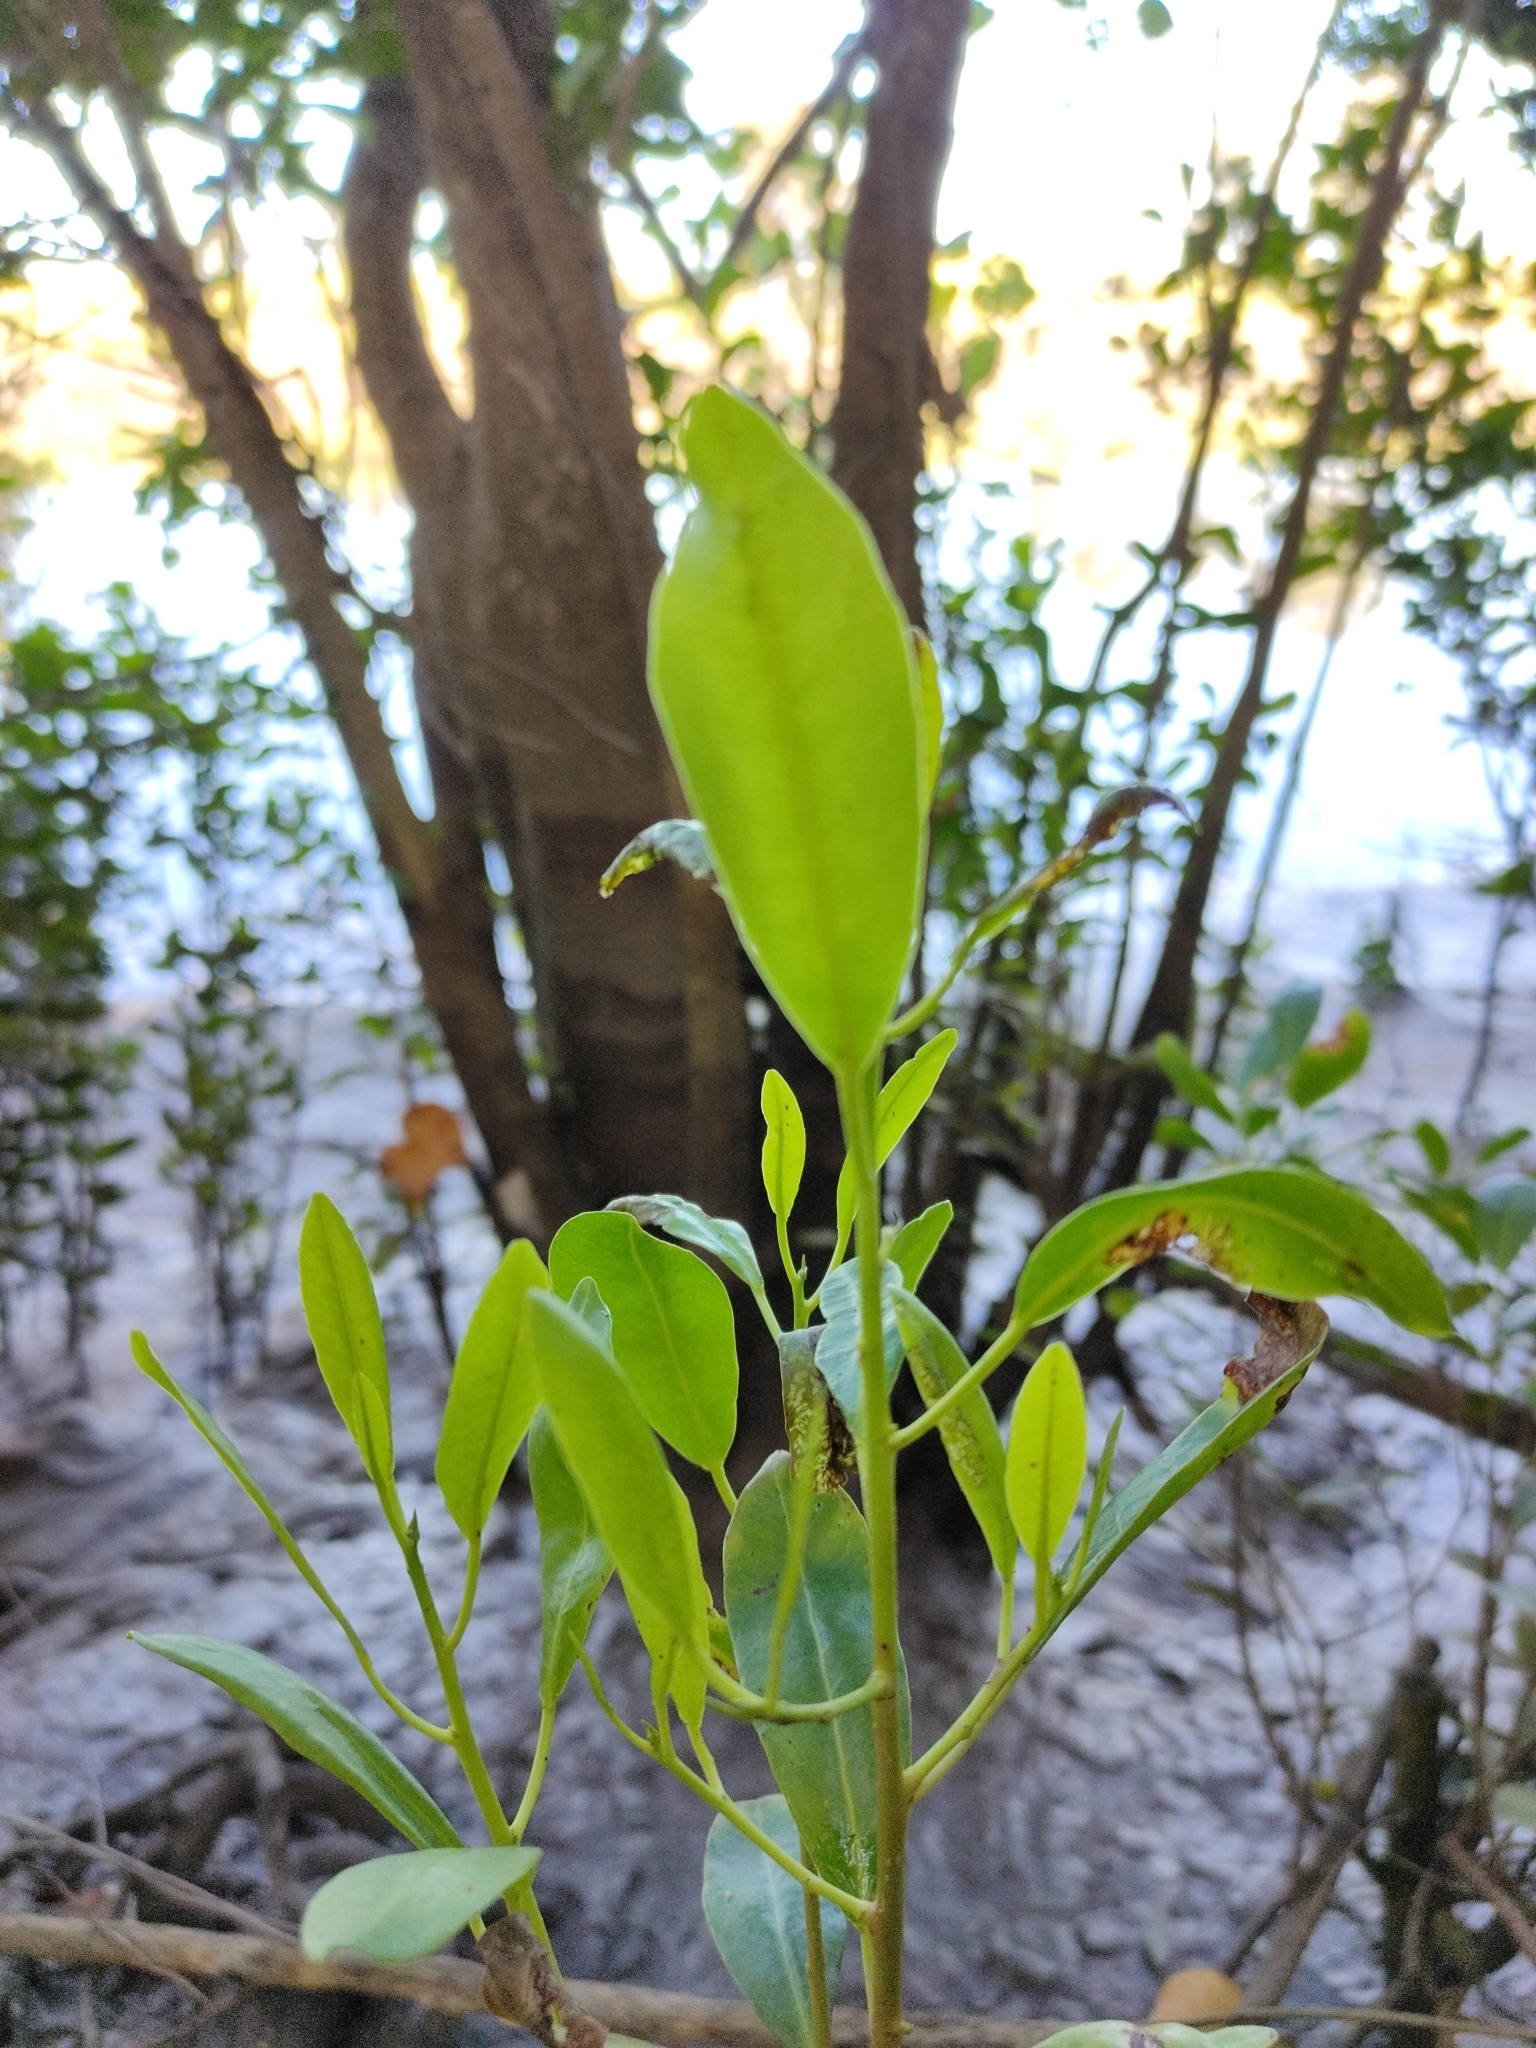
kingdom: Plantae
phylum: Tracheophyta
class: Magnoliopsida
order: Malpighiales
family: Euphorbiaceae
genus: Excoecaria
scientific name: Excoecaria agallocha
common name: River poisontree
